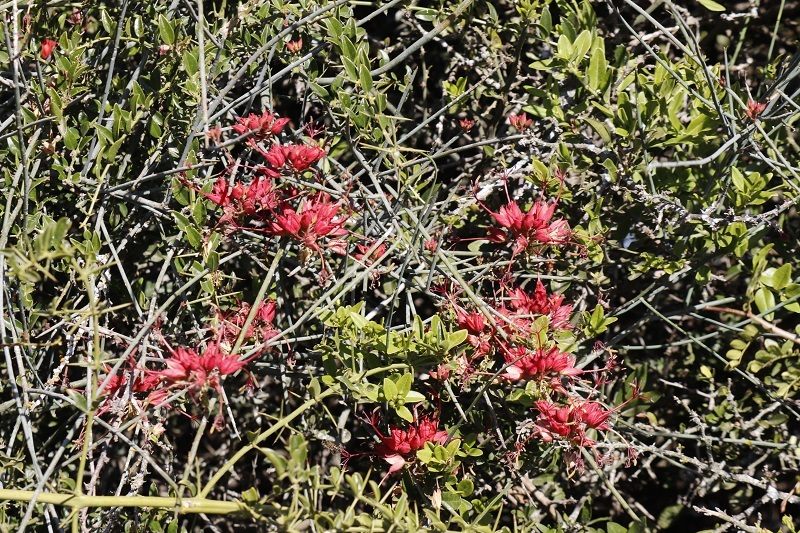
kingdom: Plantae
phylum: Tracheophyta
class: Magnoliopsida
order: Brassicales
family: Capparaceae
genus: Cadaba
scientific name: Cadaba aphylla
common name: Black storm
